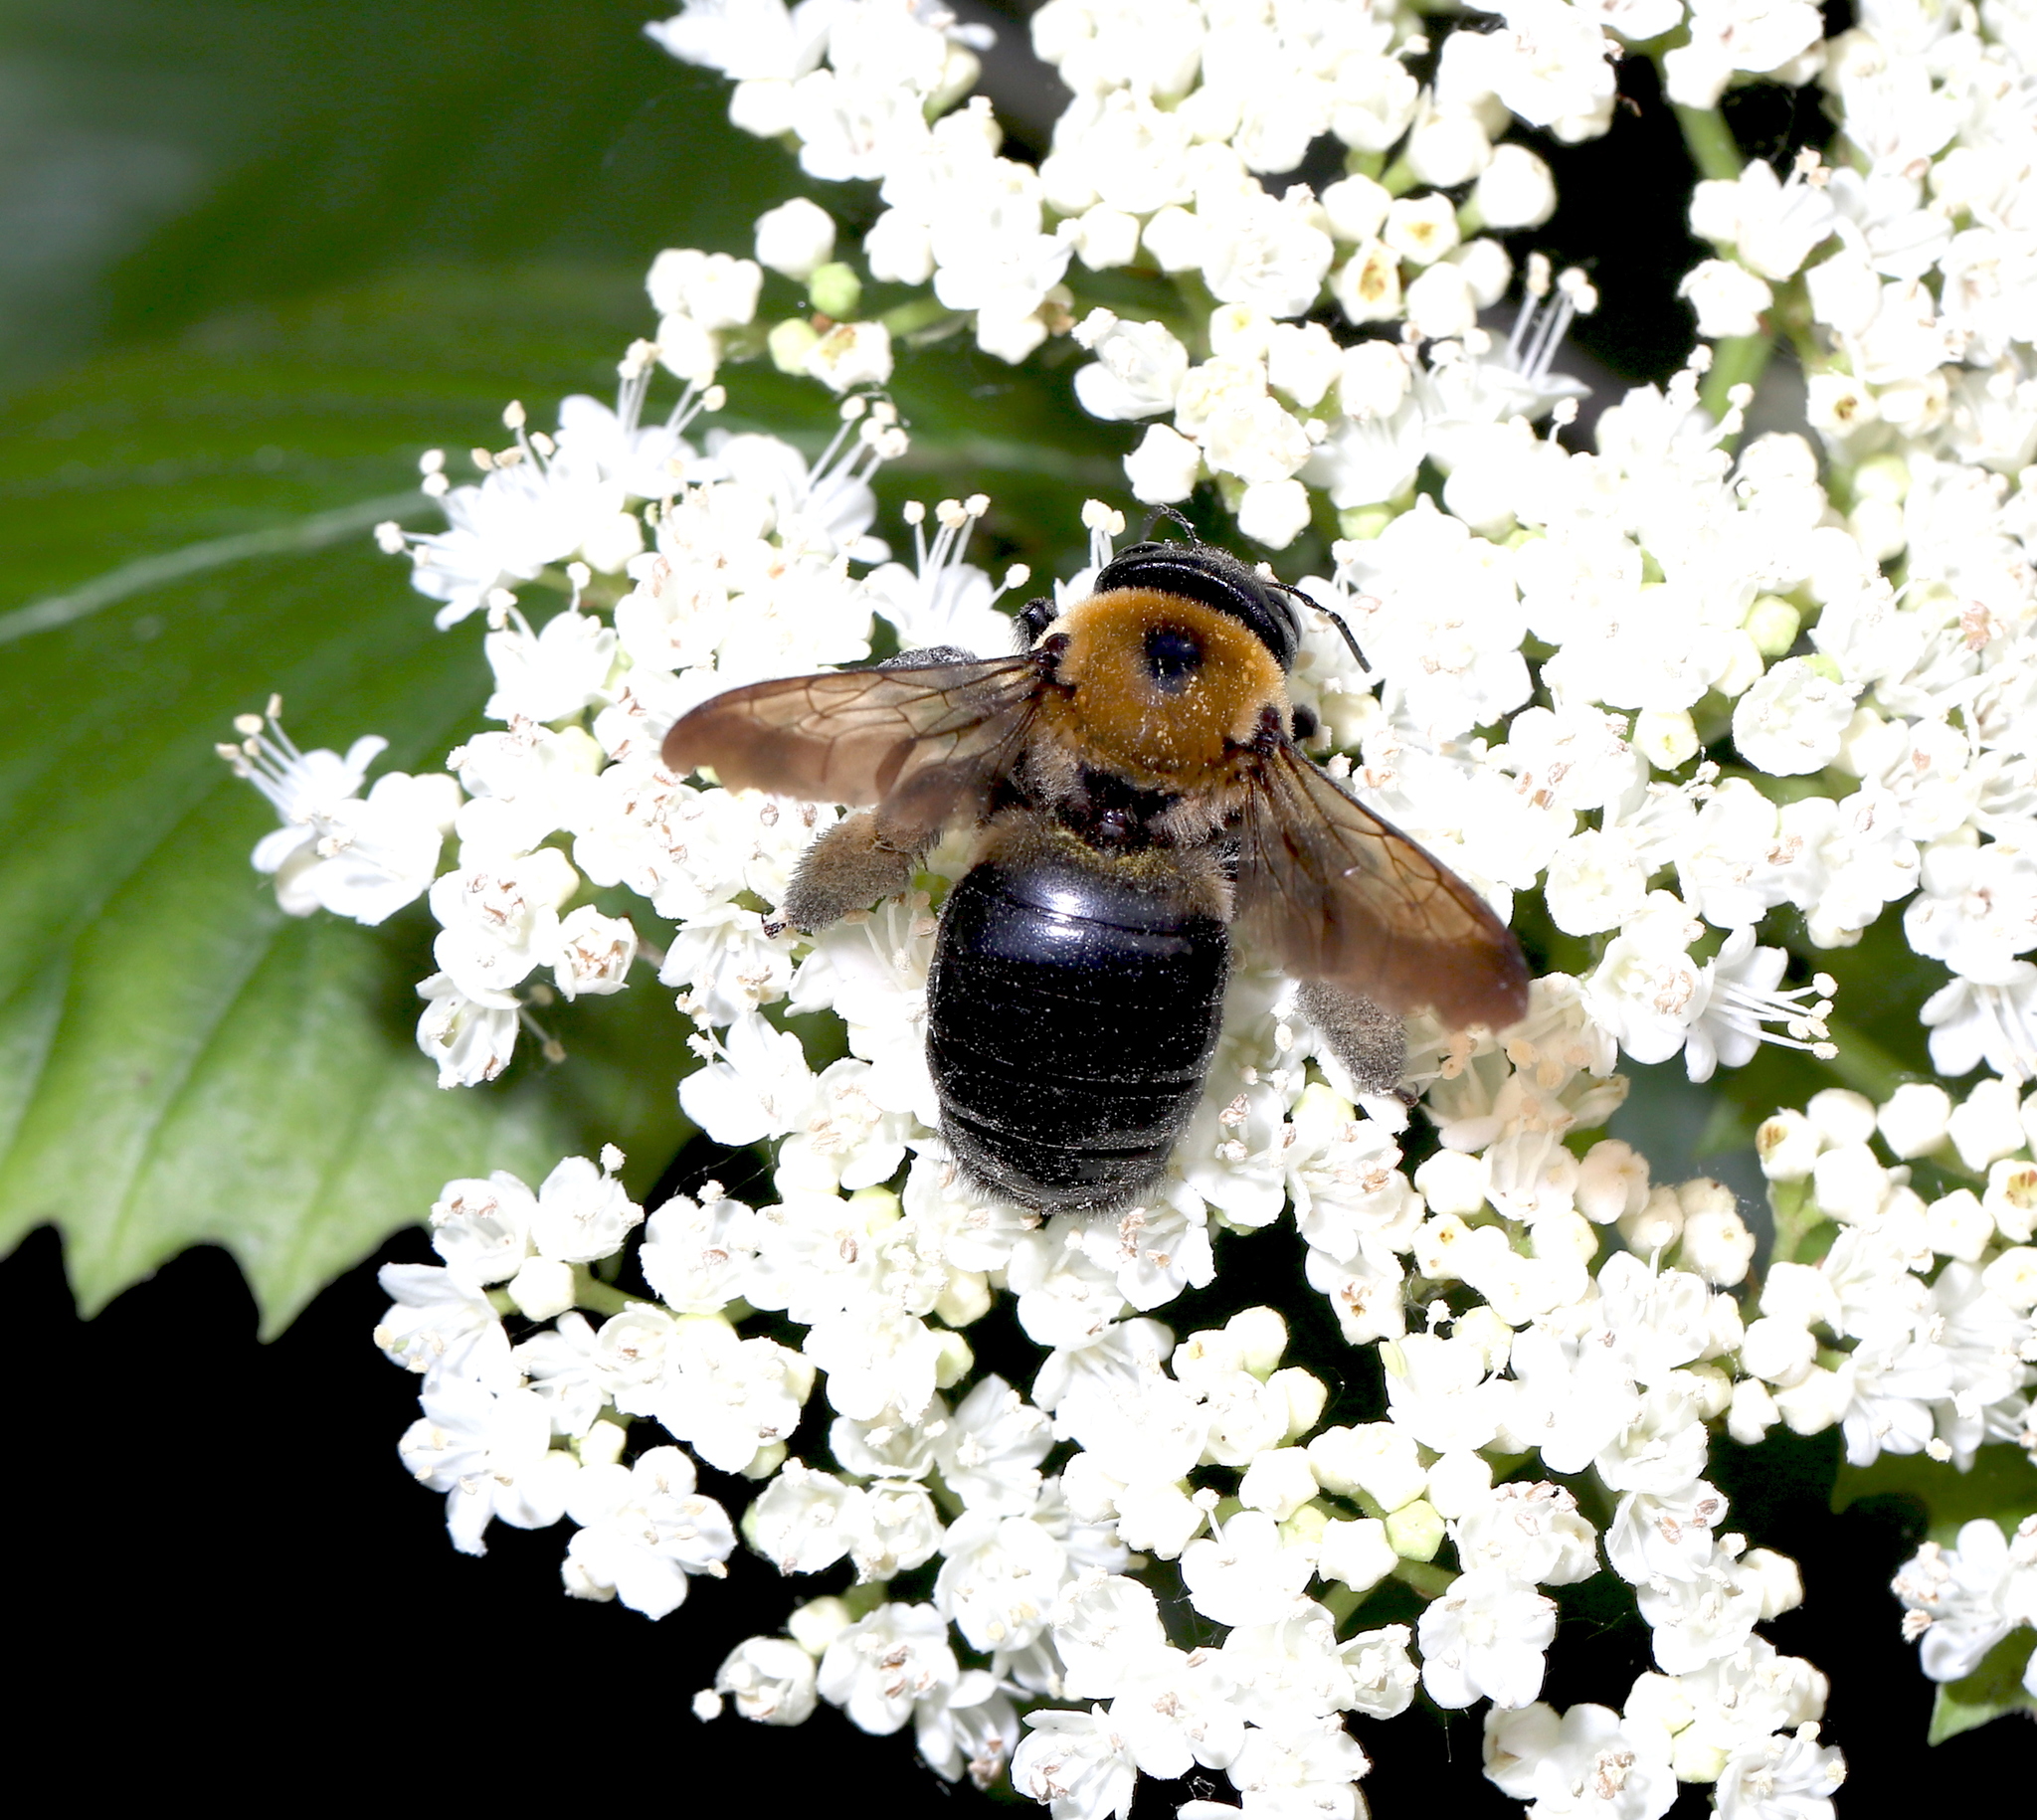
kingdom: Animalia
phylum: Arthropoda
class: Insecta
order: Hymenoptera
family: Apidae
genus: Xylocopa
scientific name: Xylocopa virginica
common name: Carpenter bee
